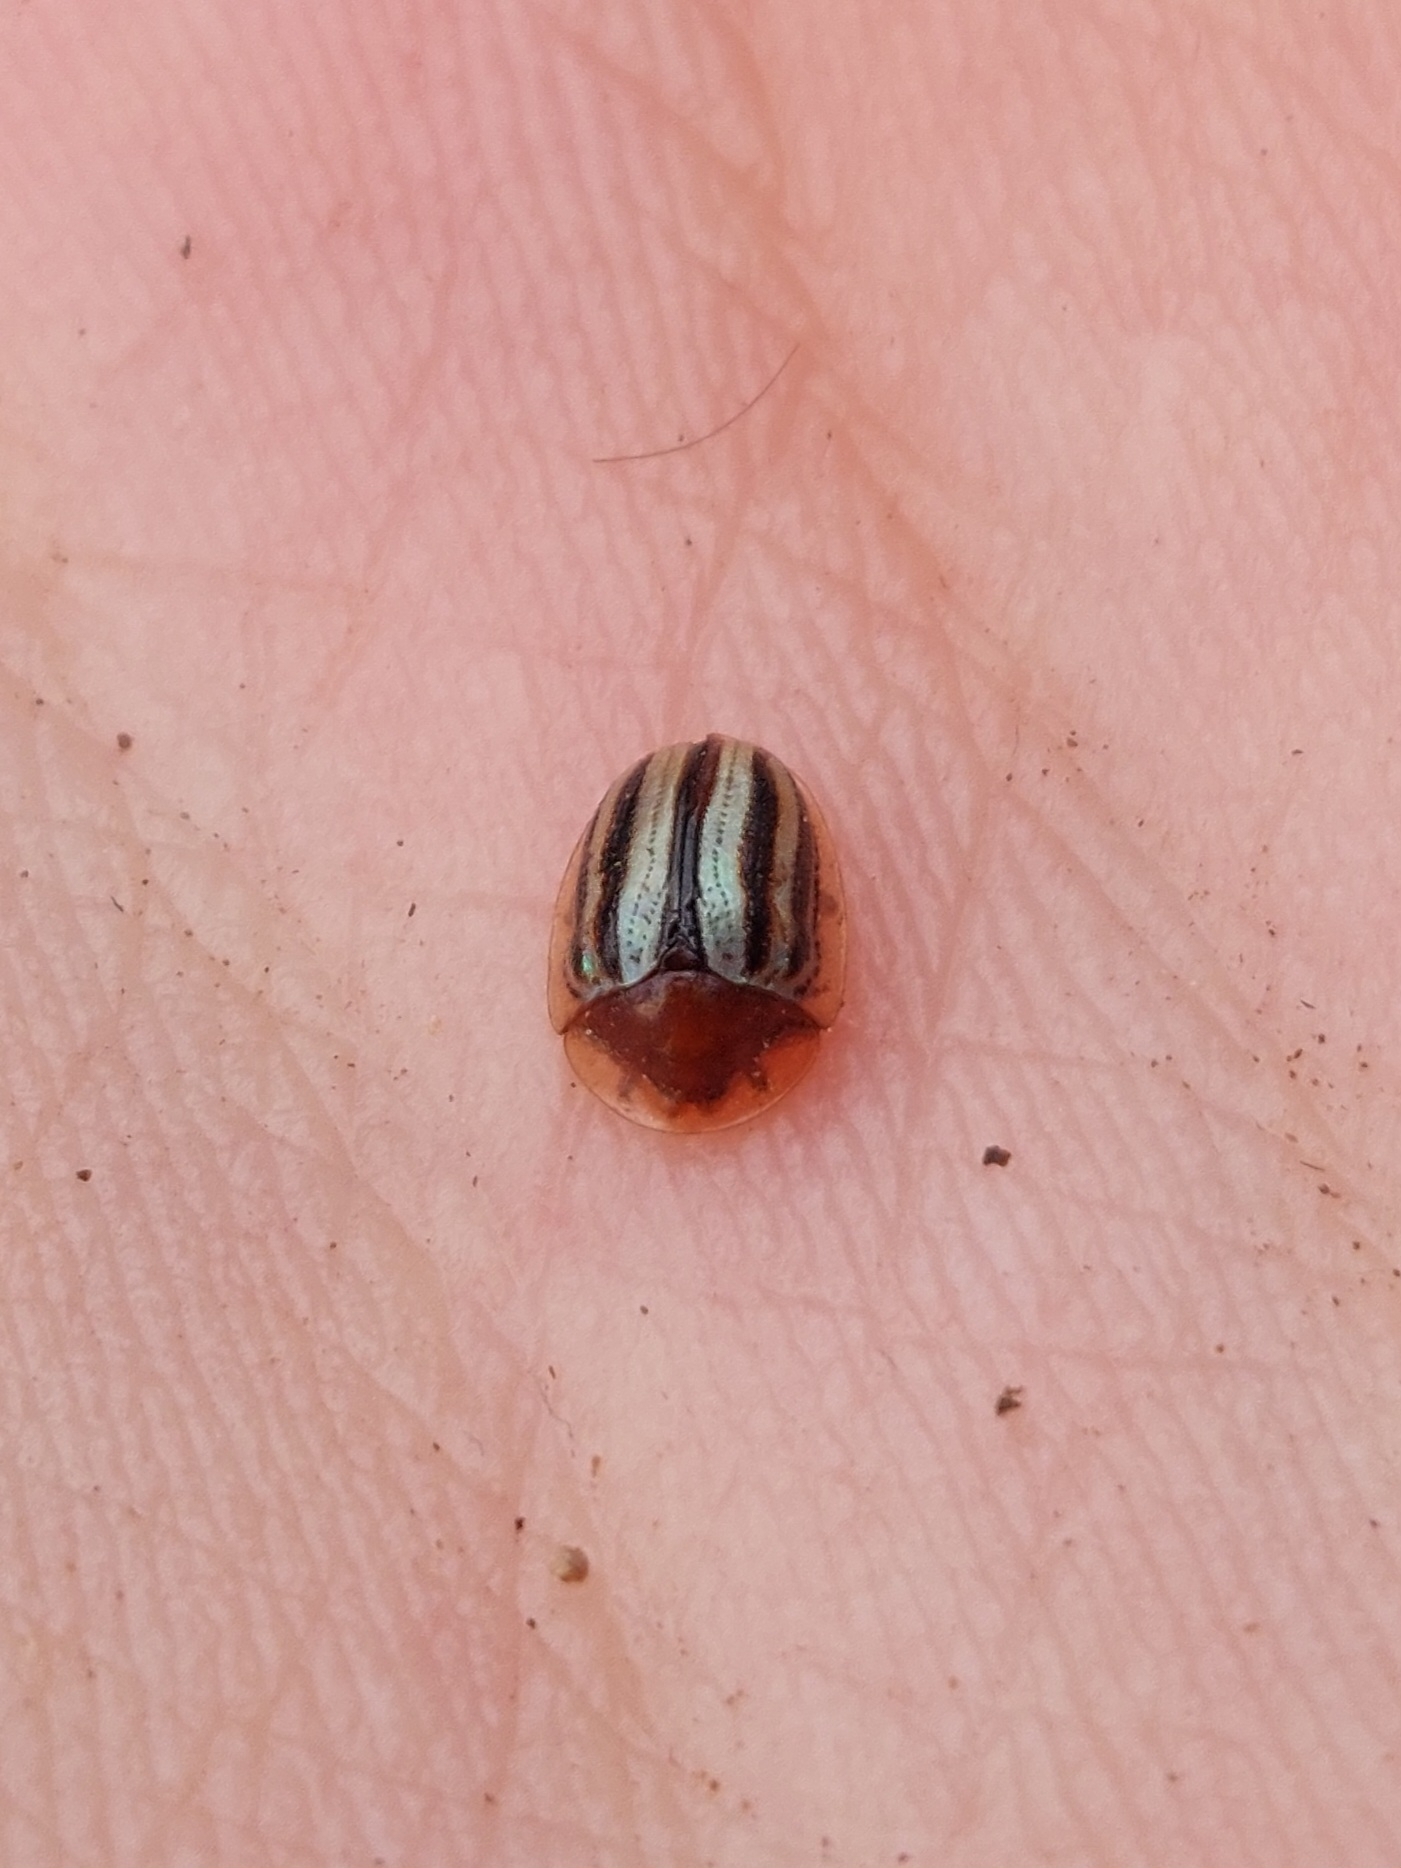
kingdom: Animalia
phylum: Arthropoda
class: Insecta
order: Coleoptera
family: Chrysomelidae
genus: Agroiconota
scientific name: Agroiconota bivittata
